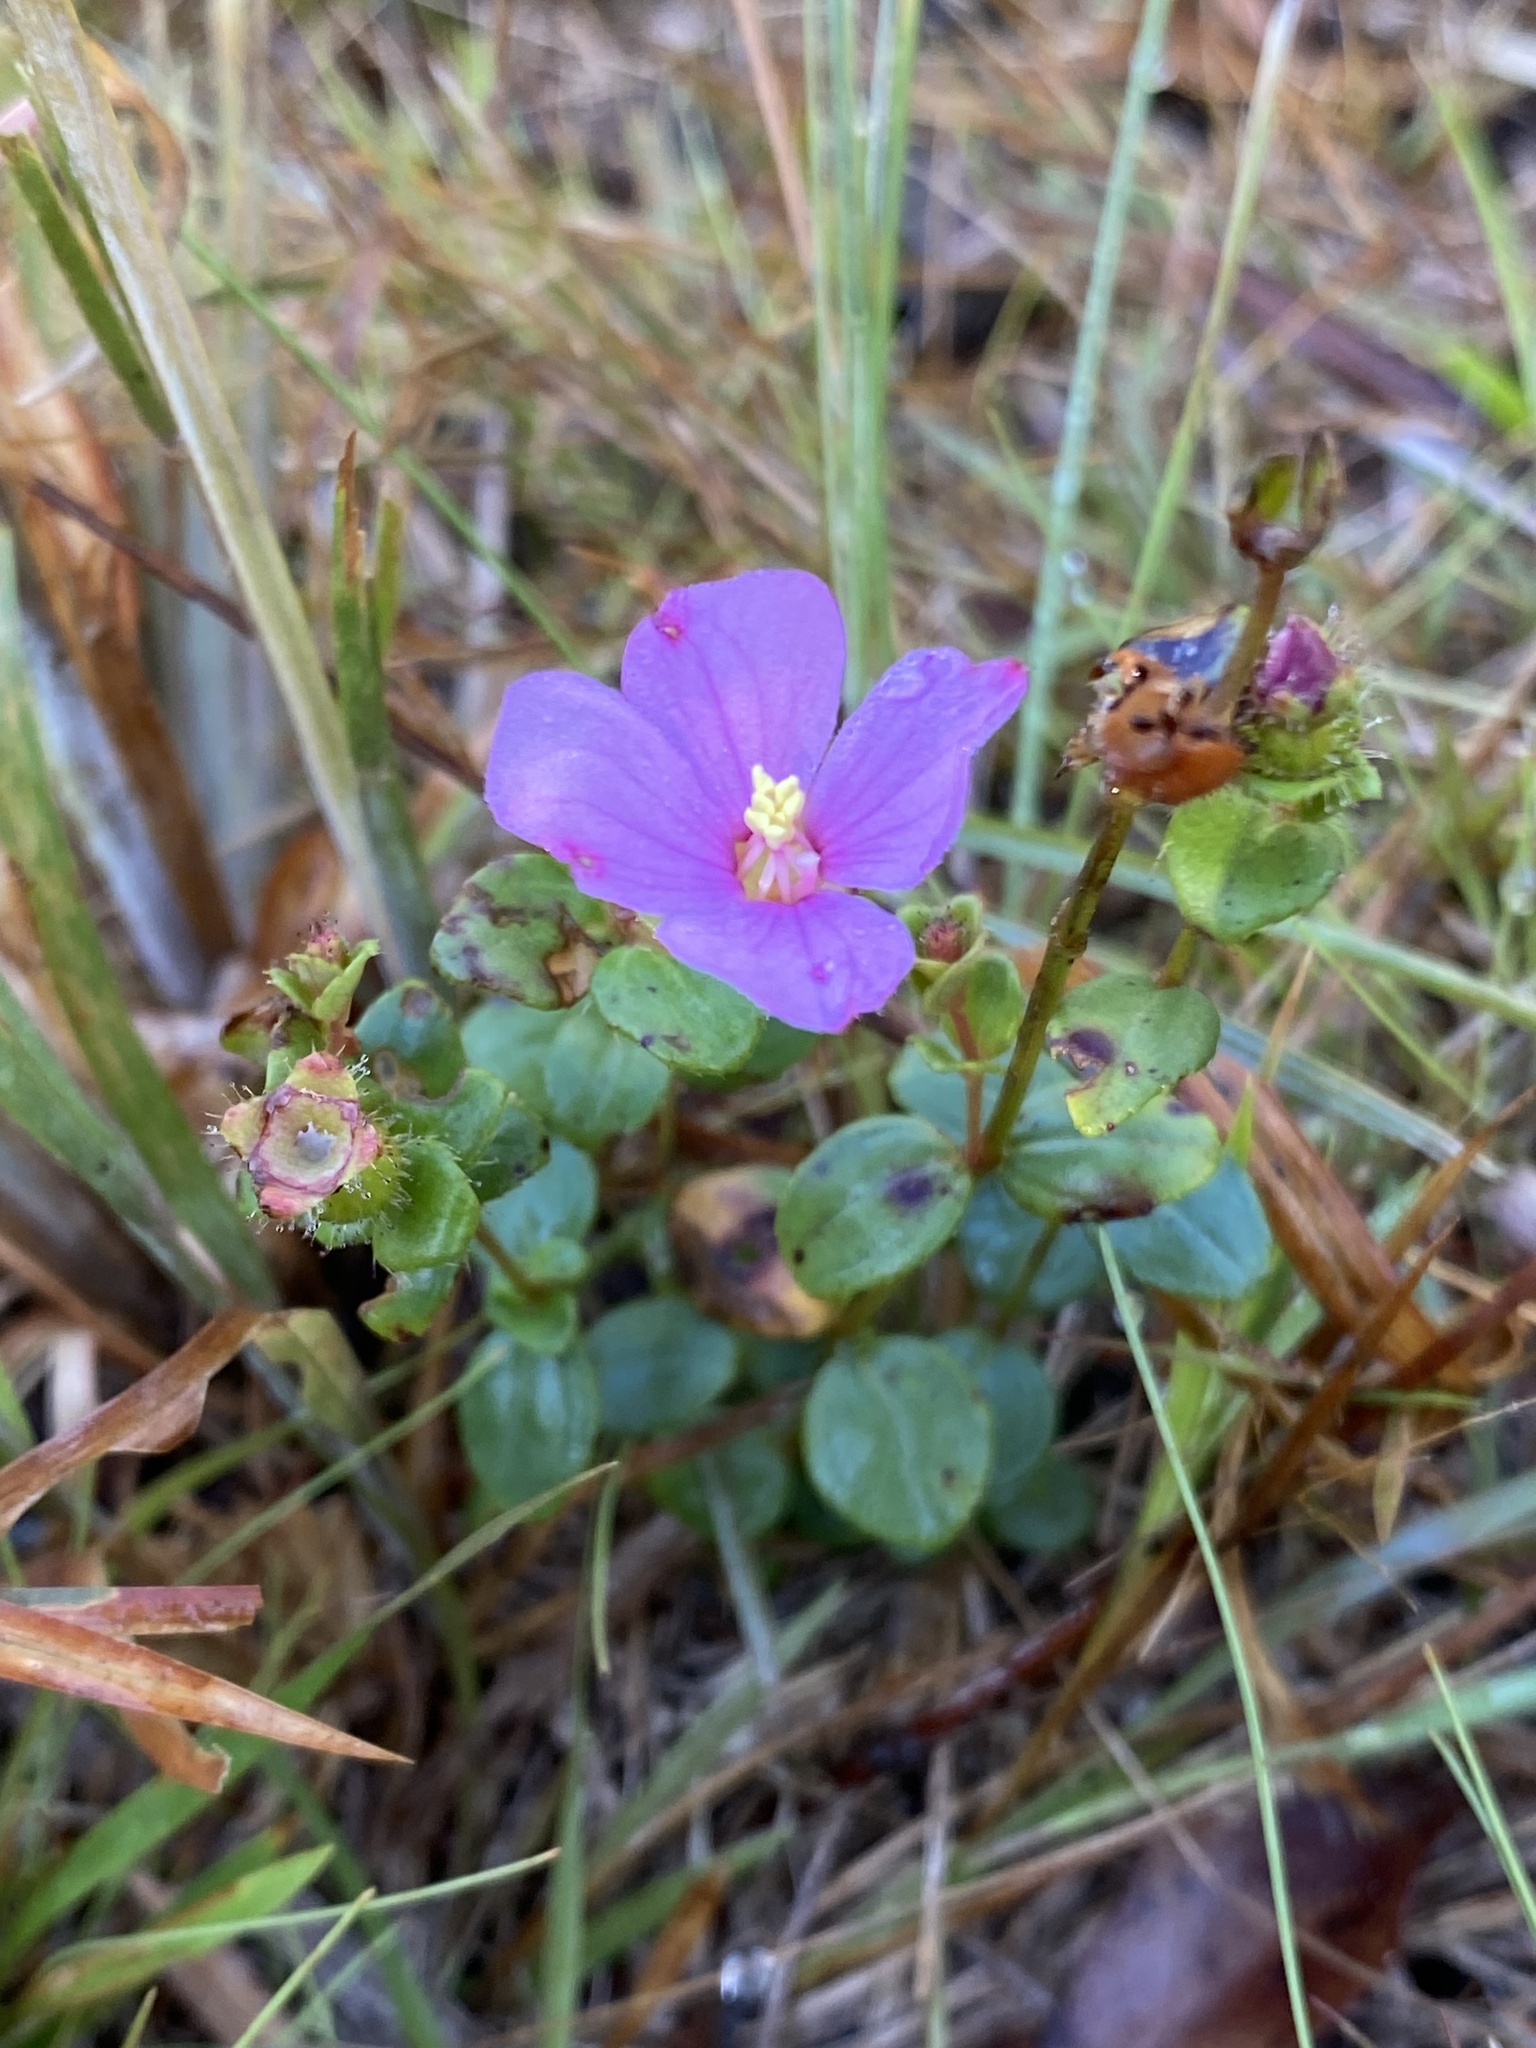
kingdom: Plantae
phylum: Tracheophyta
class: Magnoliopsida
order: Myrtales
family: Melastomataceae
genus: Rhexia
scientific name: Rhexia nuttallii
